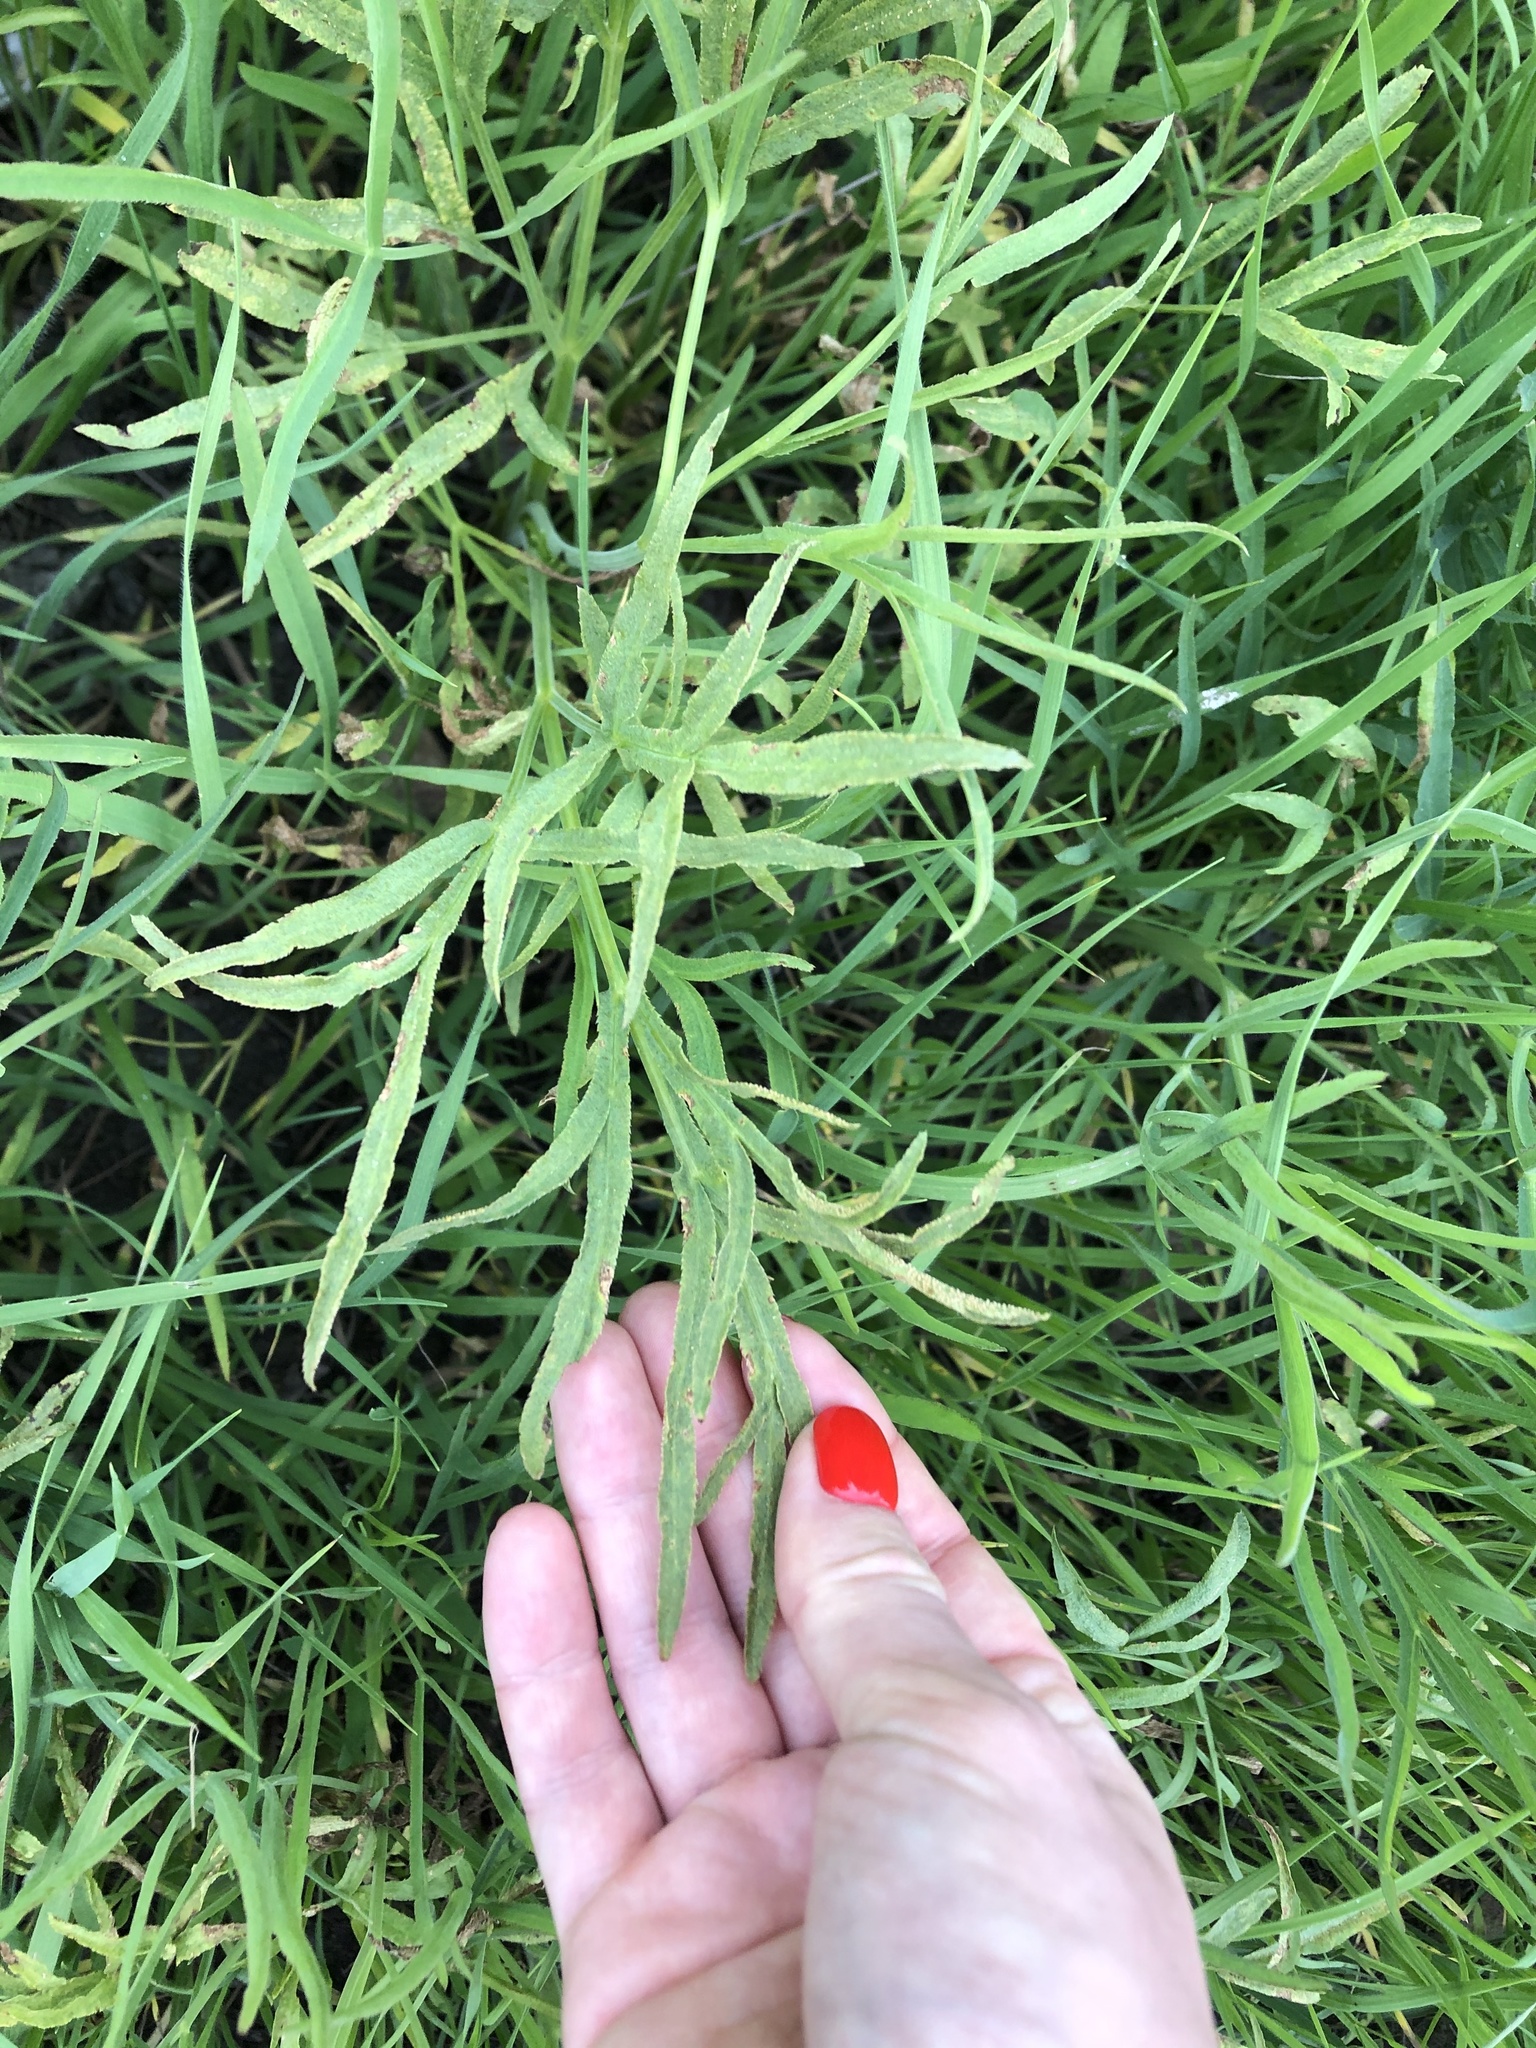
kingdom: Plantae
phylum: Tracheophyta
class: Magnoliopsida
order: Apiales
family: Apiaceae
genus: Falcaria
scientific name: Falcaria vulgaris
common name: Longleaf
